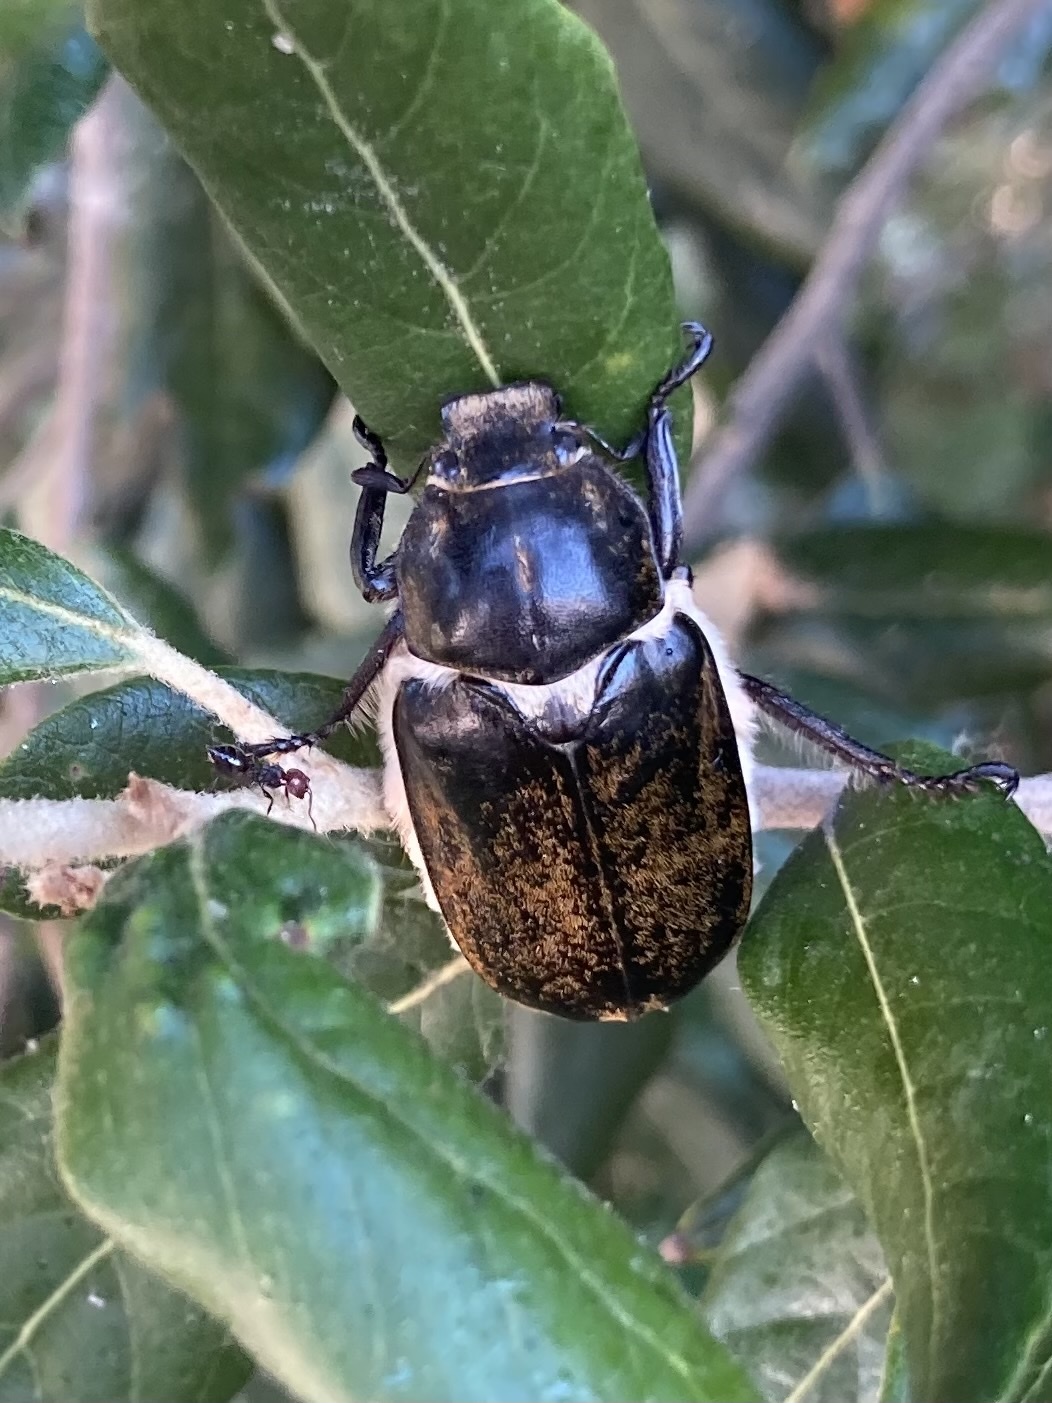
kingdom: Animalia
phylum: Arthropoda
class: Insecta
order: Coleoptera
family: Scarabaeidae
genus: Anoxia
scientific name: Anoxia scutellaris
